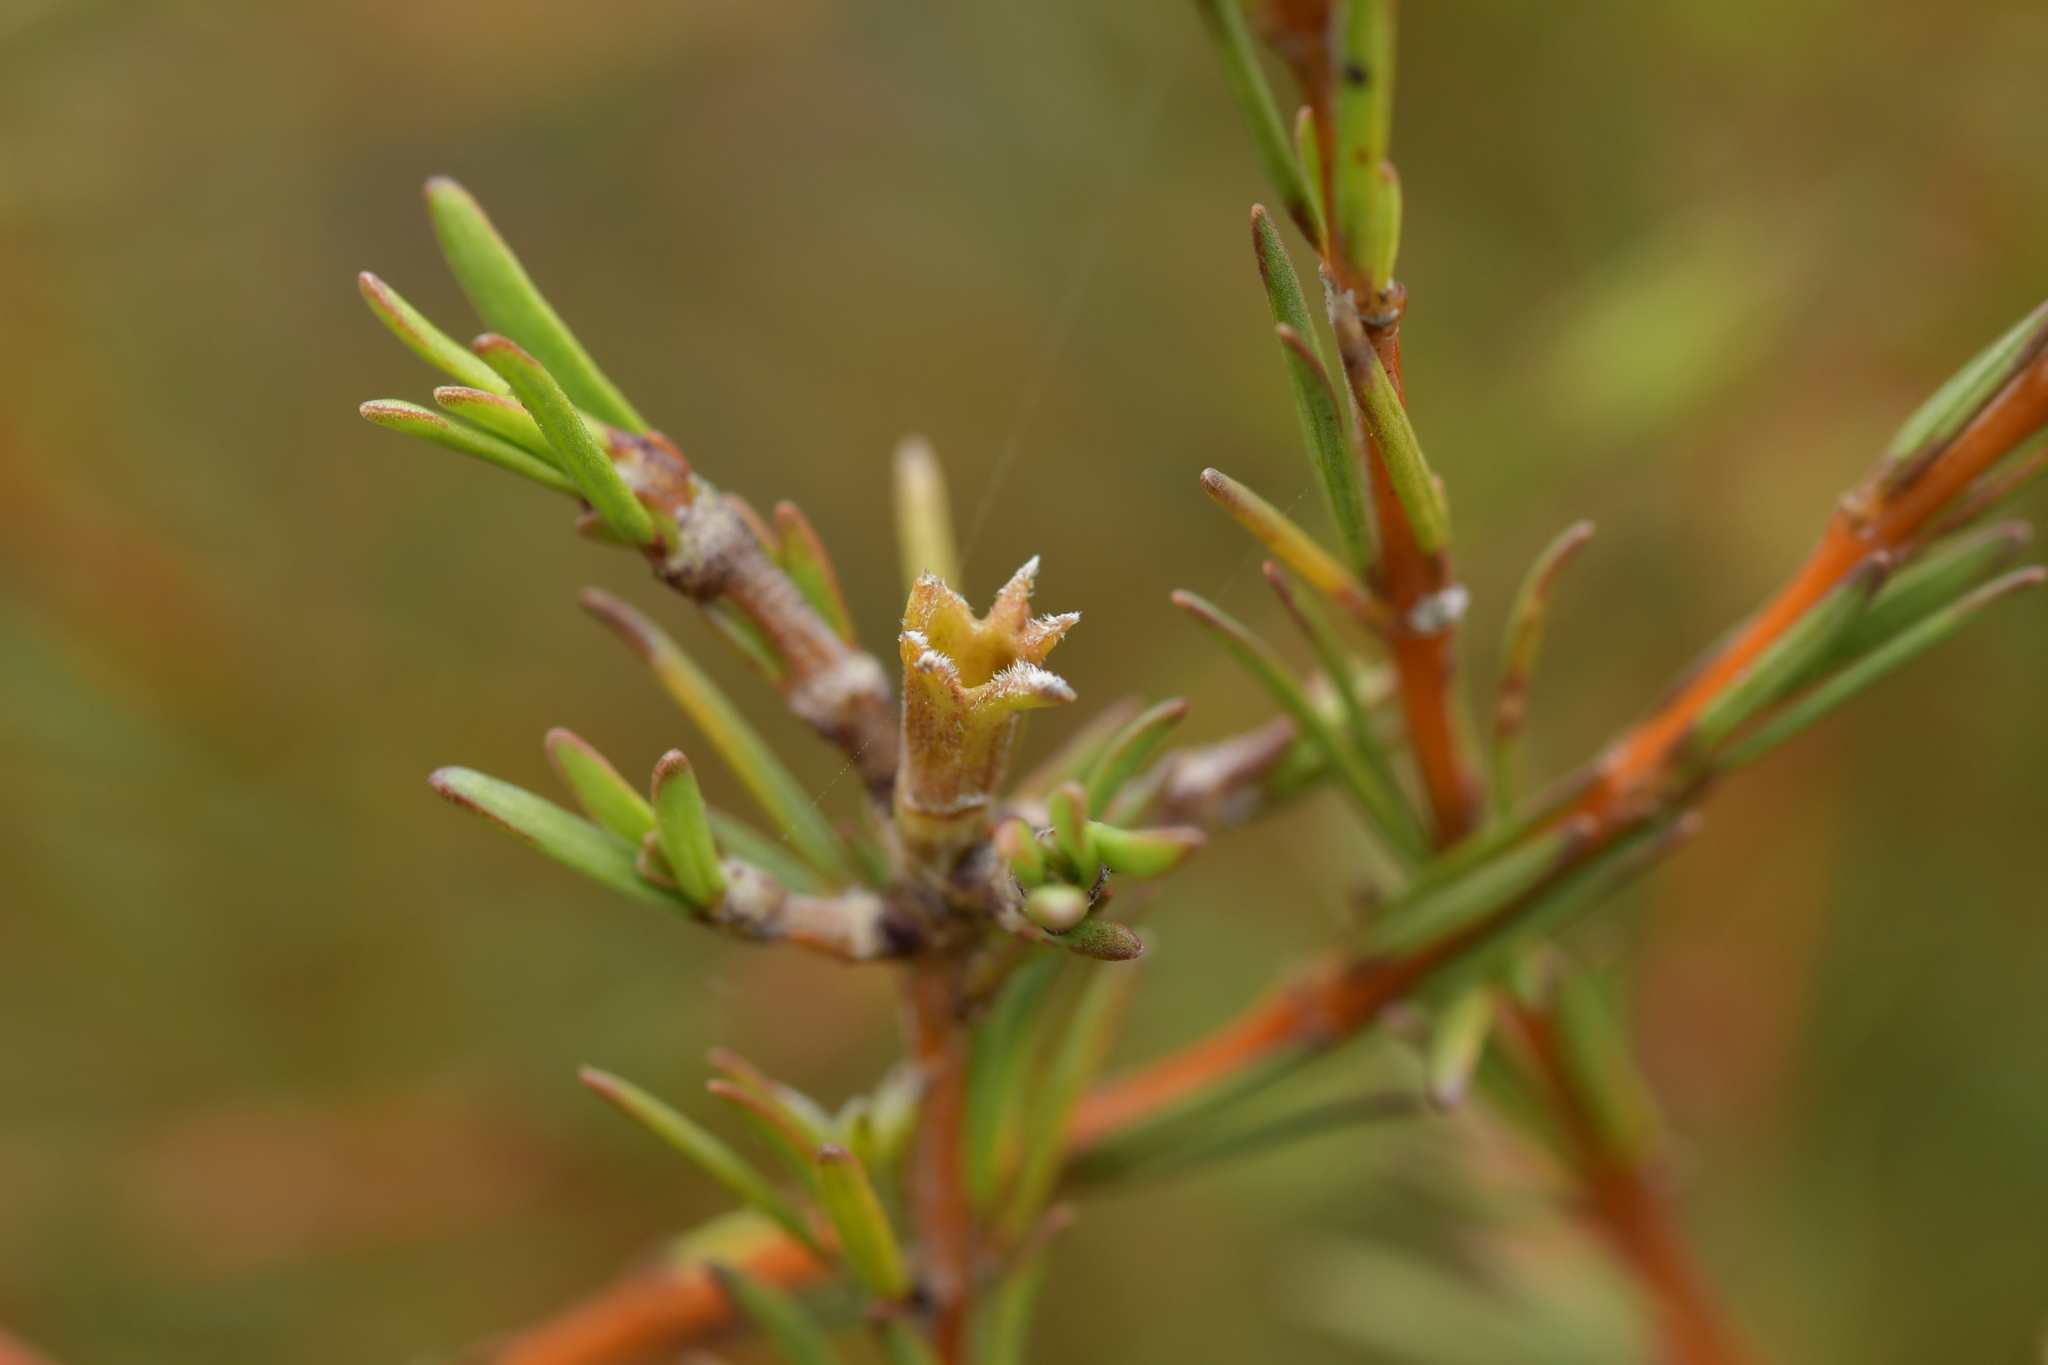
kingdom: Plantae
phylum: Tracheophyta
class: Magnoliopsida
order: Gentianales
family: Rubiaceae
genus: Coprosma
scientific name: Coprosma acerosa
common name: Sand coprosma
